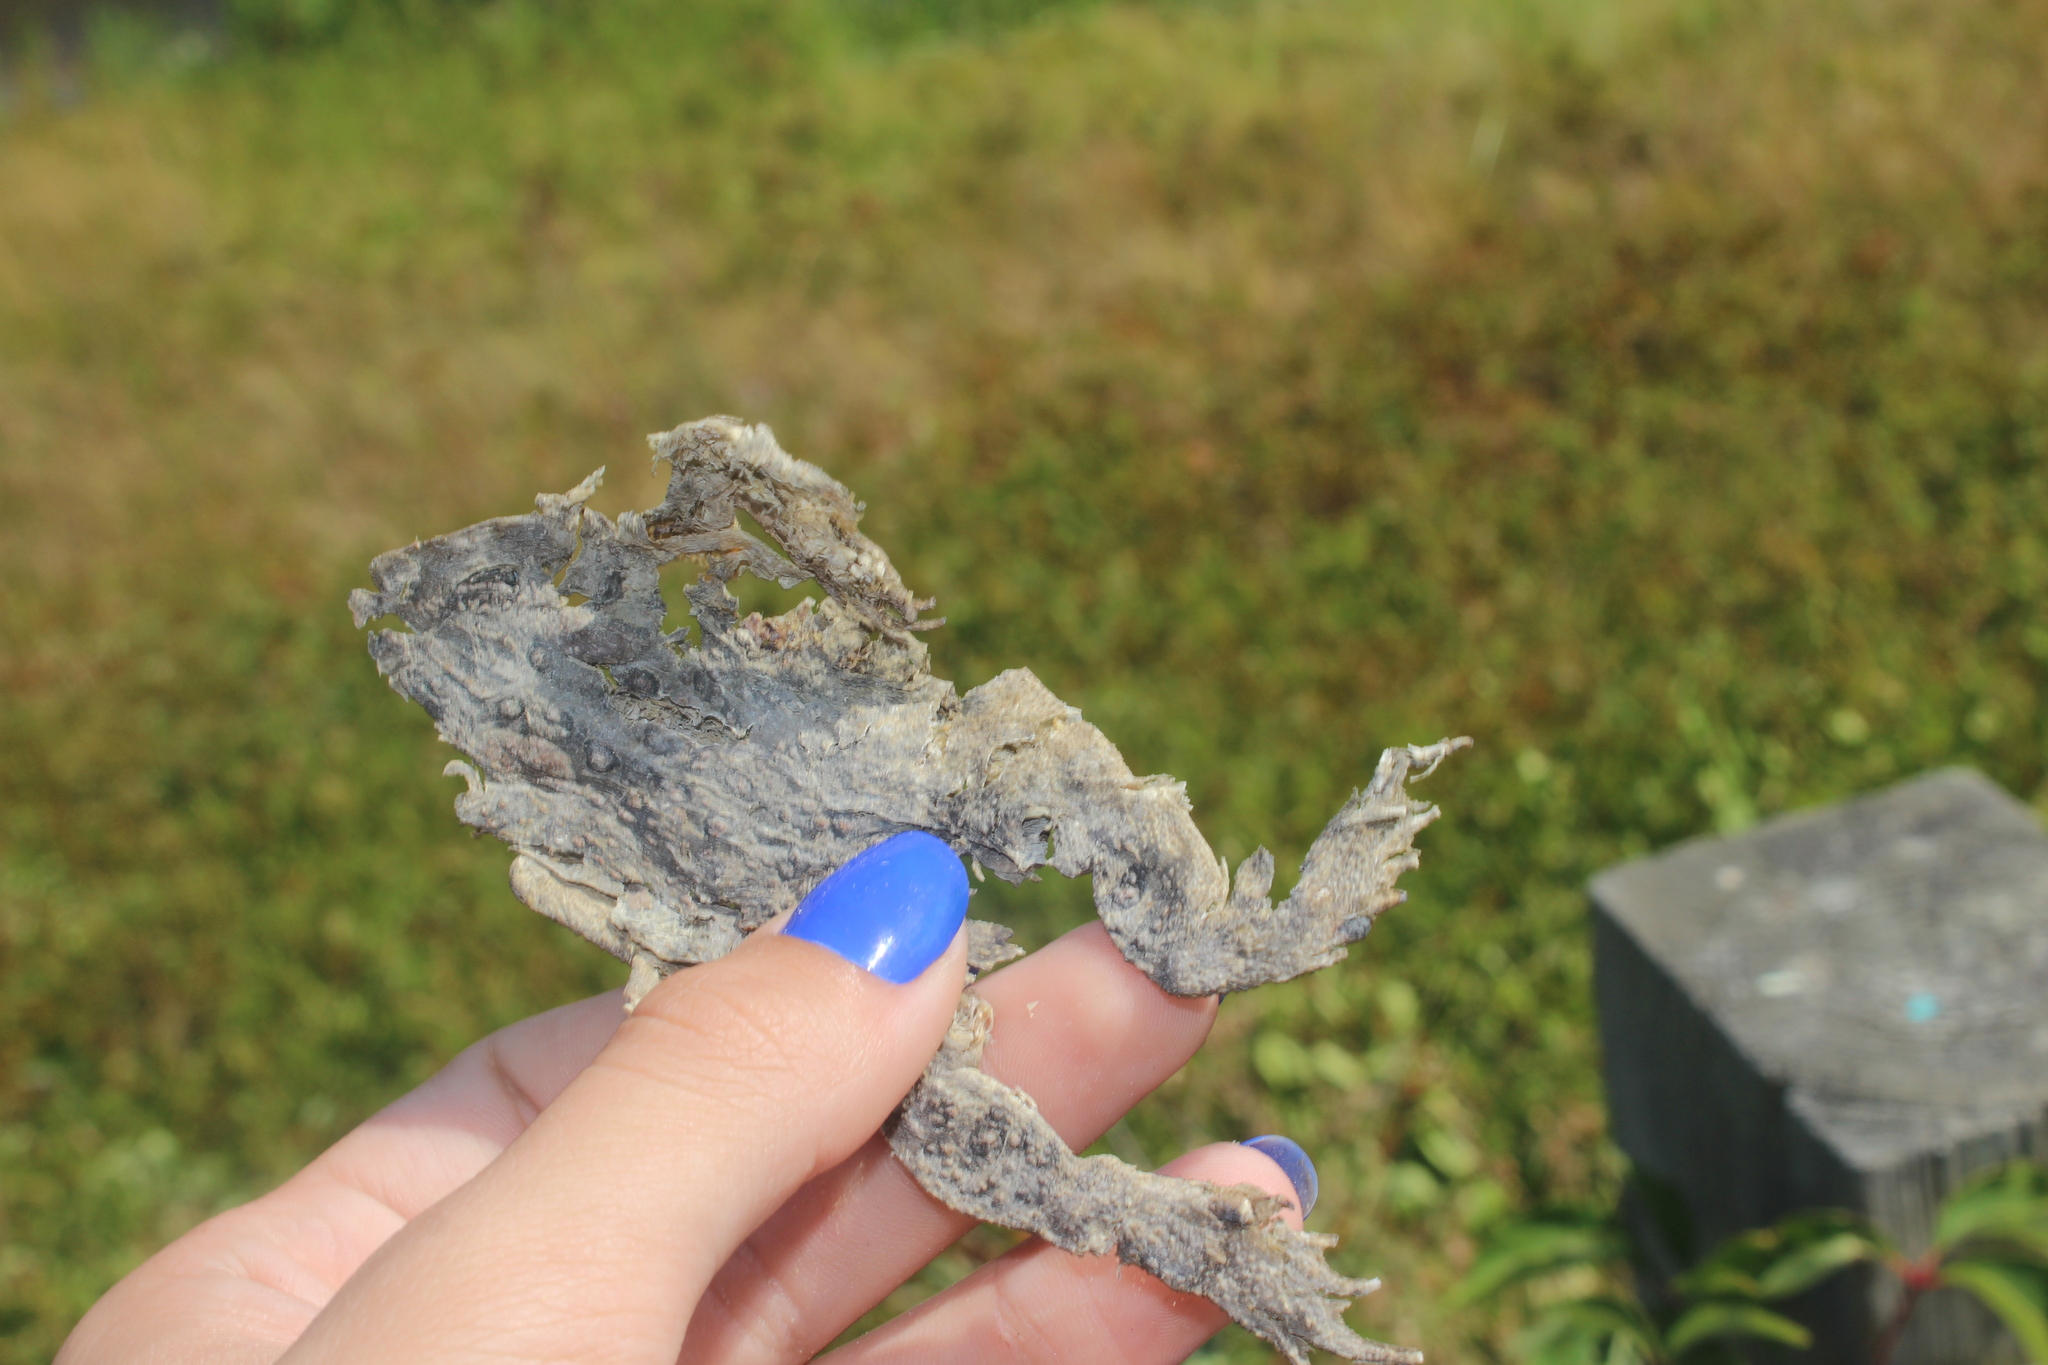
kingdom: Animalia
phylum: Chordata
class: Amphibia
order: Anura
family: Bufonidae
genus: Anaxyrus
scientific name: Anaxyrus americanus
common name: American toad
